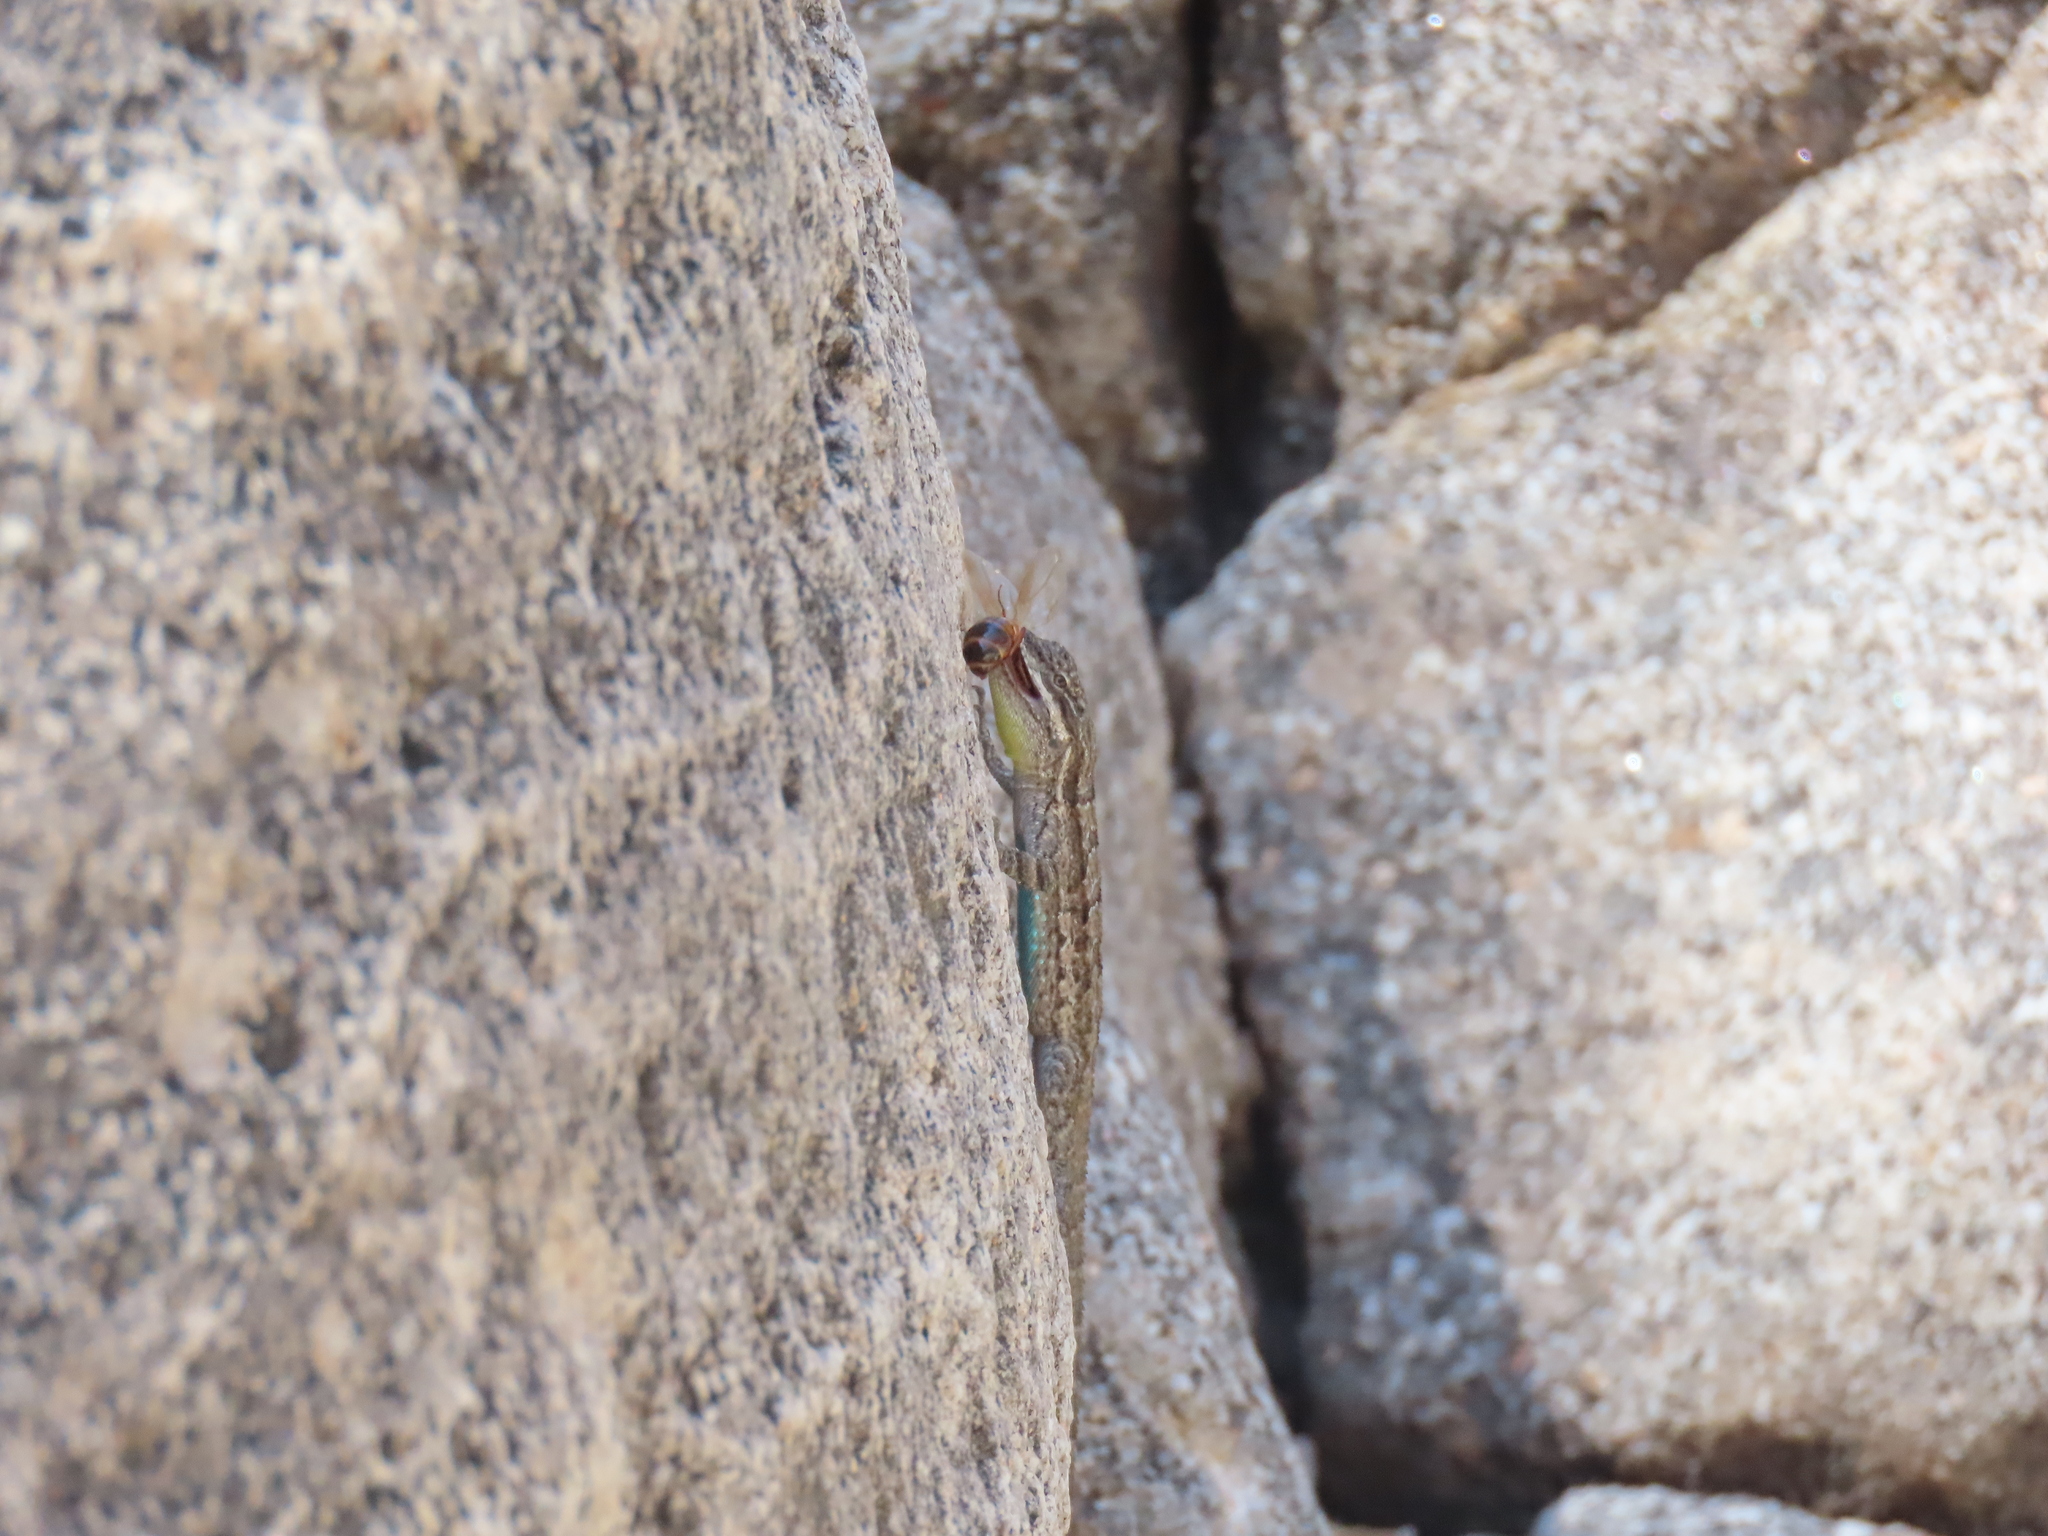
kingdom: Animalia
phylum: Chordata
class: Squamata
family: Phrynosomatidae
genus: Urosaurus
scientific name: Urosaurus ornatus
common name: Ornate tree lizard
